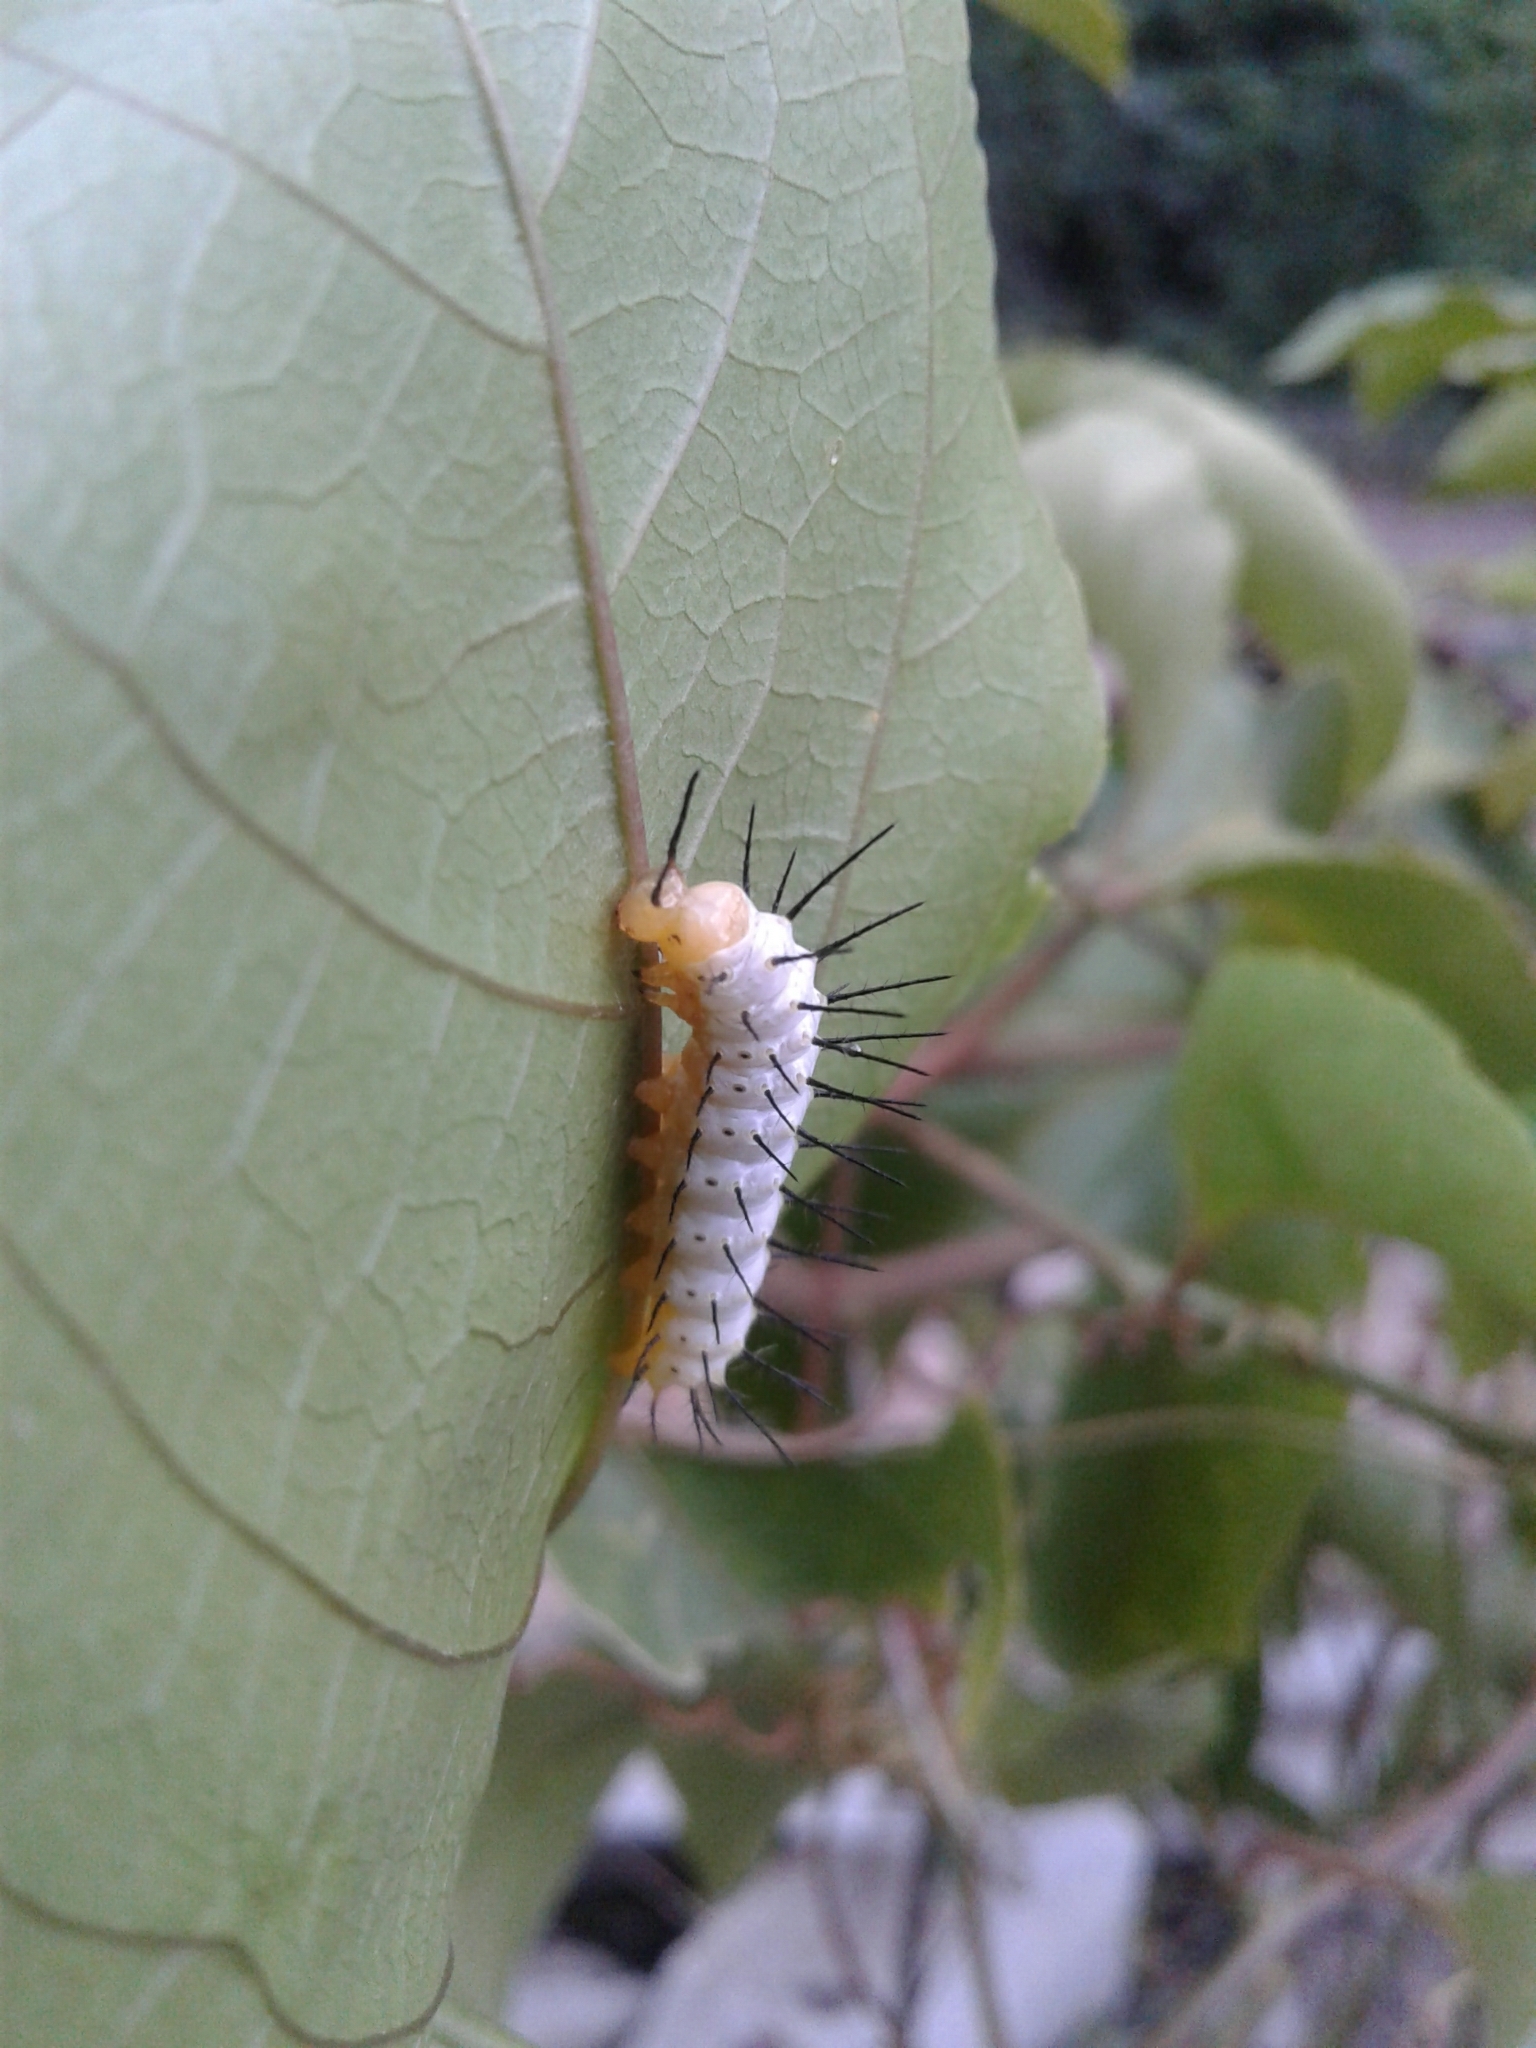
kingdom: Animalia
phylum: Arthropoda
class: Insecta
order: Lepidoptera
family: Nymphalidae
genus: Heliconius
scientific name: Heliconius charithonia
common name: Zebra long wing
